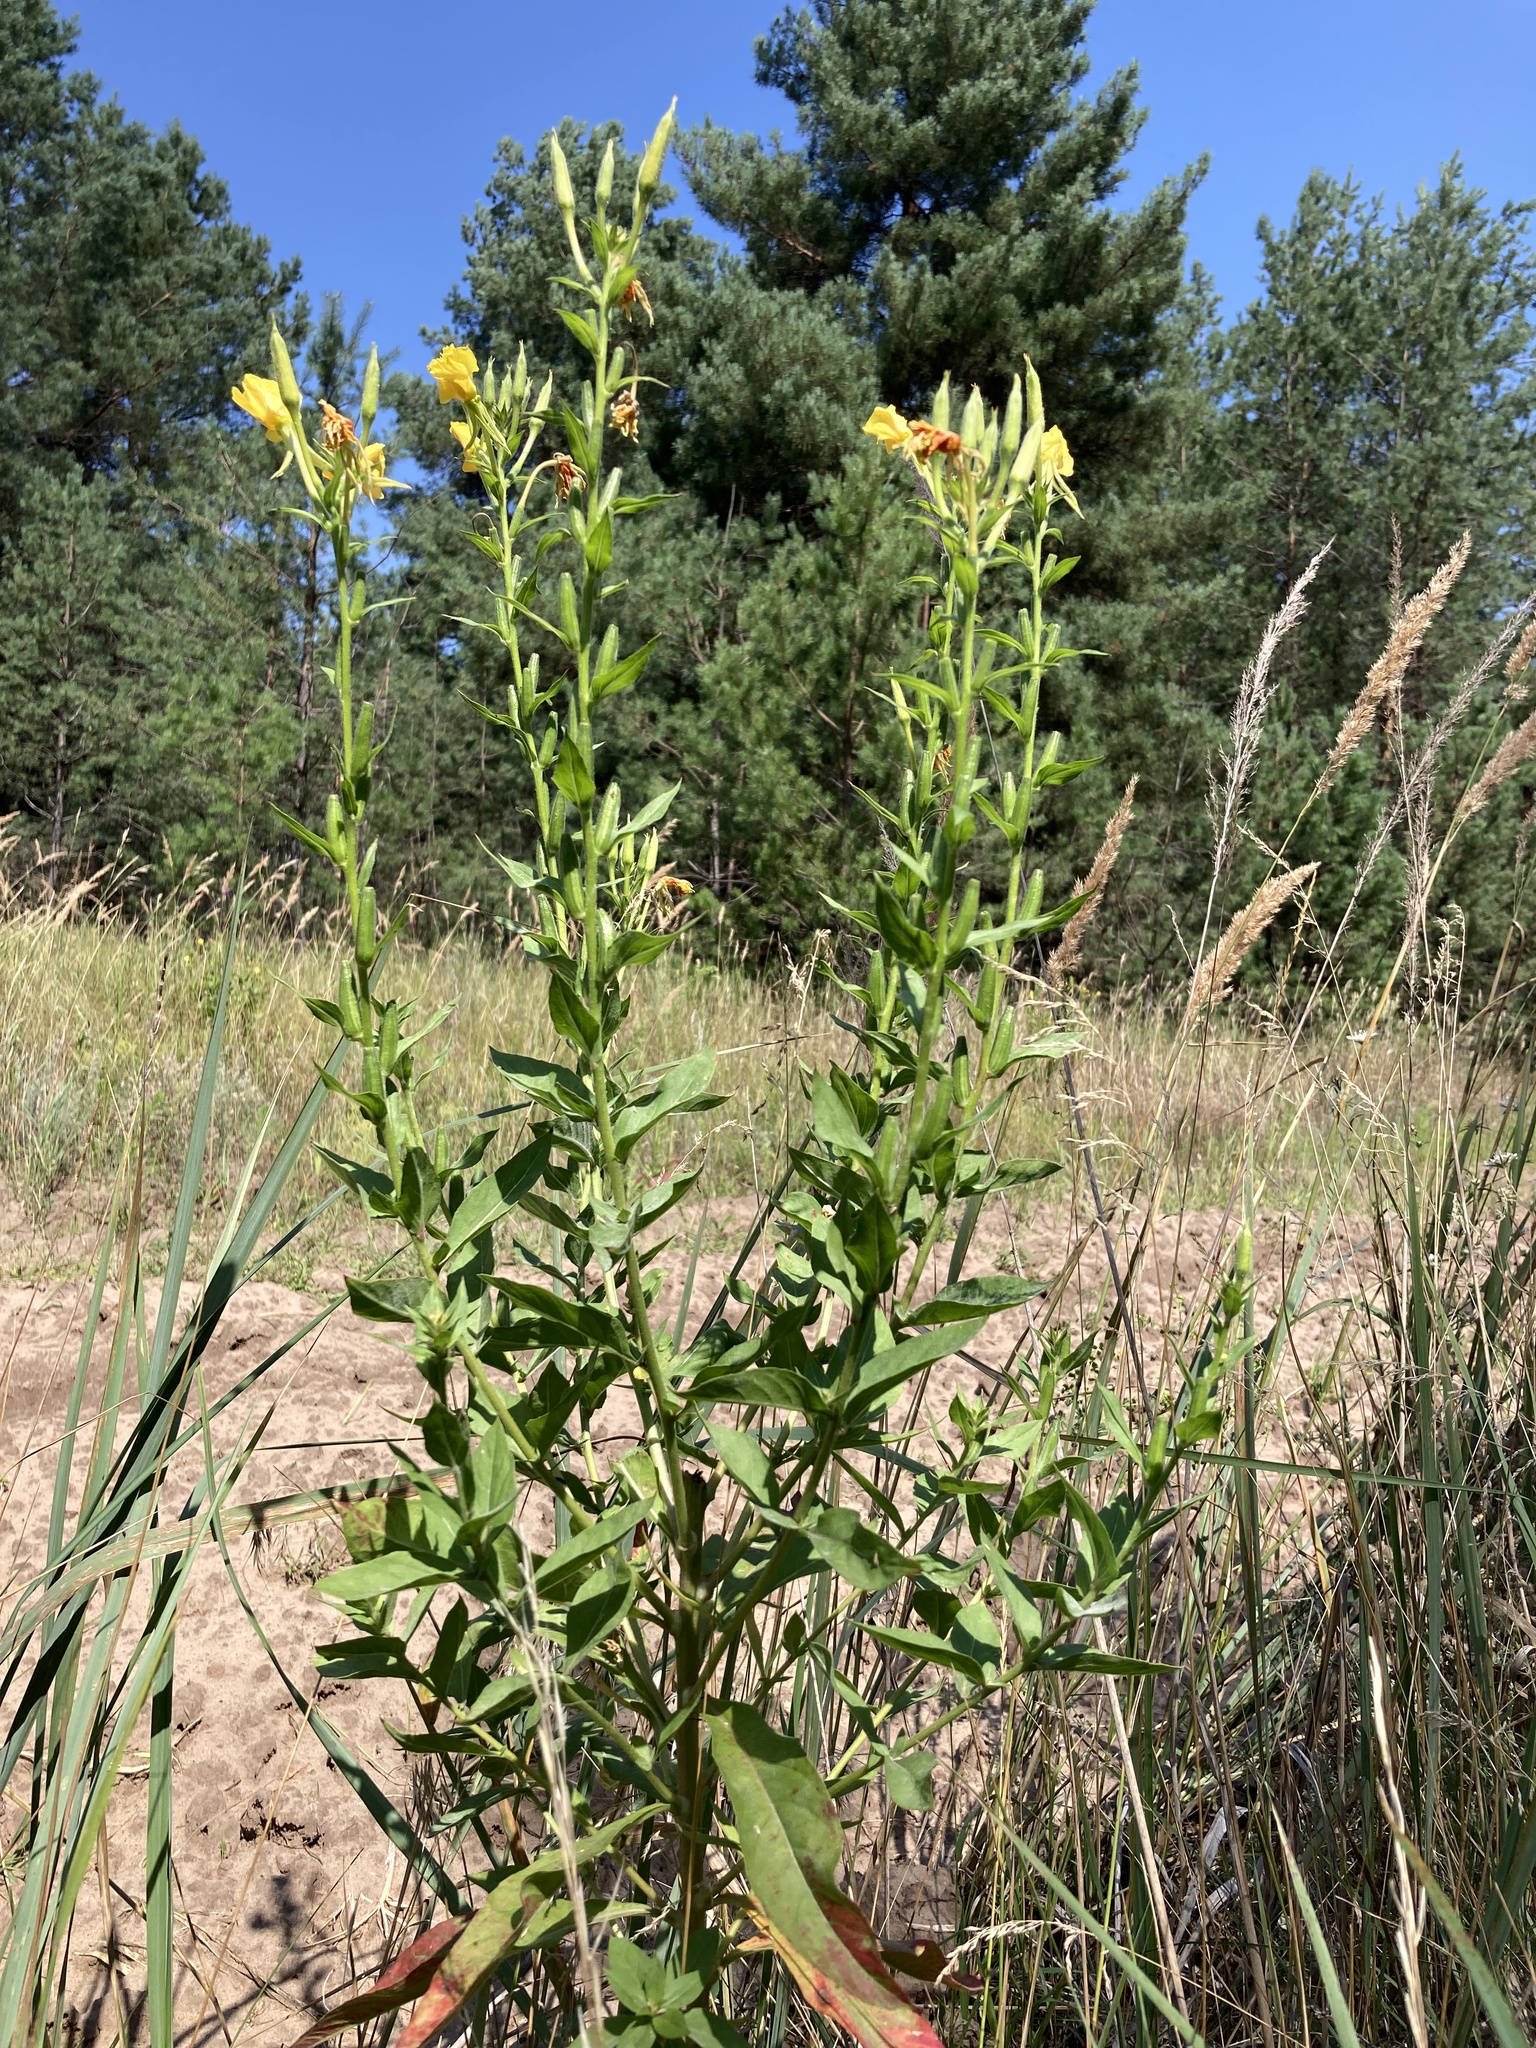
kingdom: Plantae
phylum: Tracheophyta
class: Magnoliopsida
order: Myrtales
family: Onagraceae
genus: Oenothera
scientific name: Oenothera biennis
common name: Common evening-primrose
